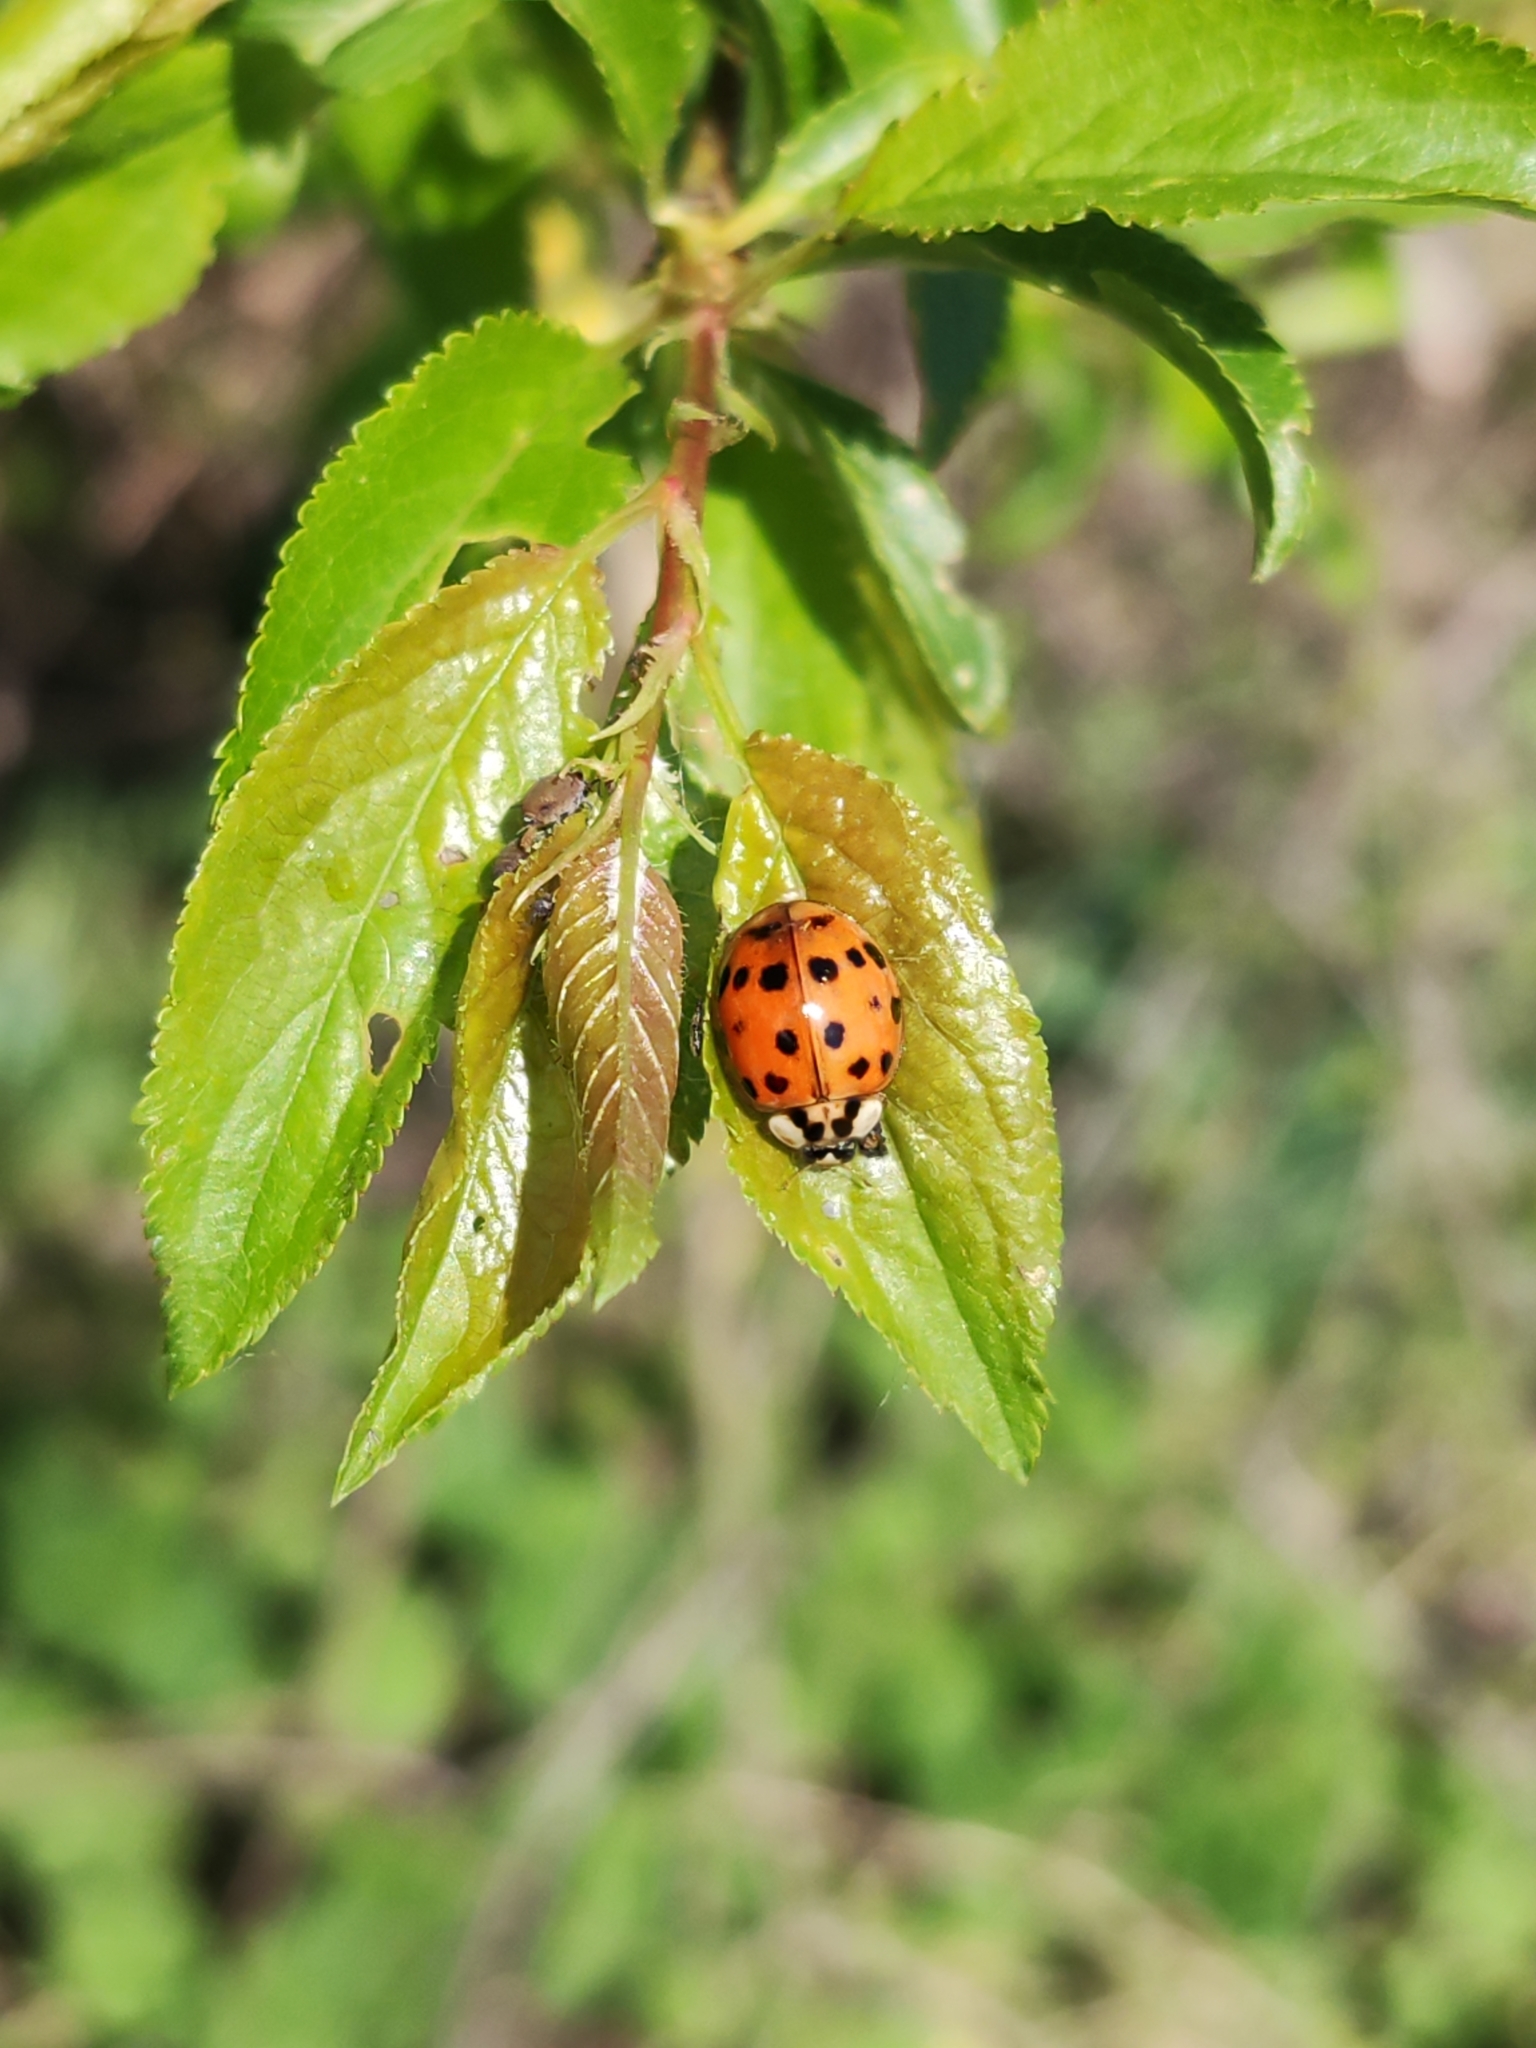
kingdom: Animalia
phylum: Arthropoda
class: Insecta
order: Coleoptera
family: Coccinellidae
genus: Harmonia
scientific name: Harmonia axyridis
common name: Harlequin ladybird
